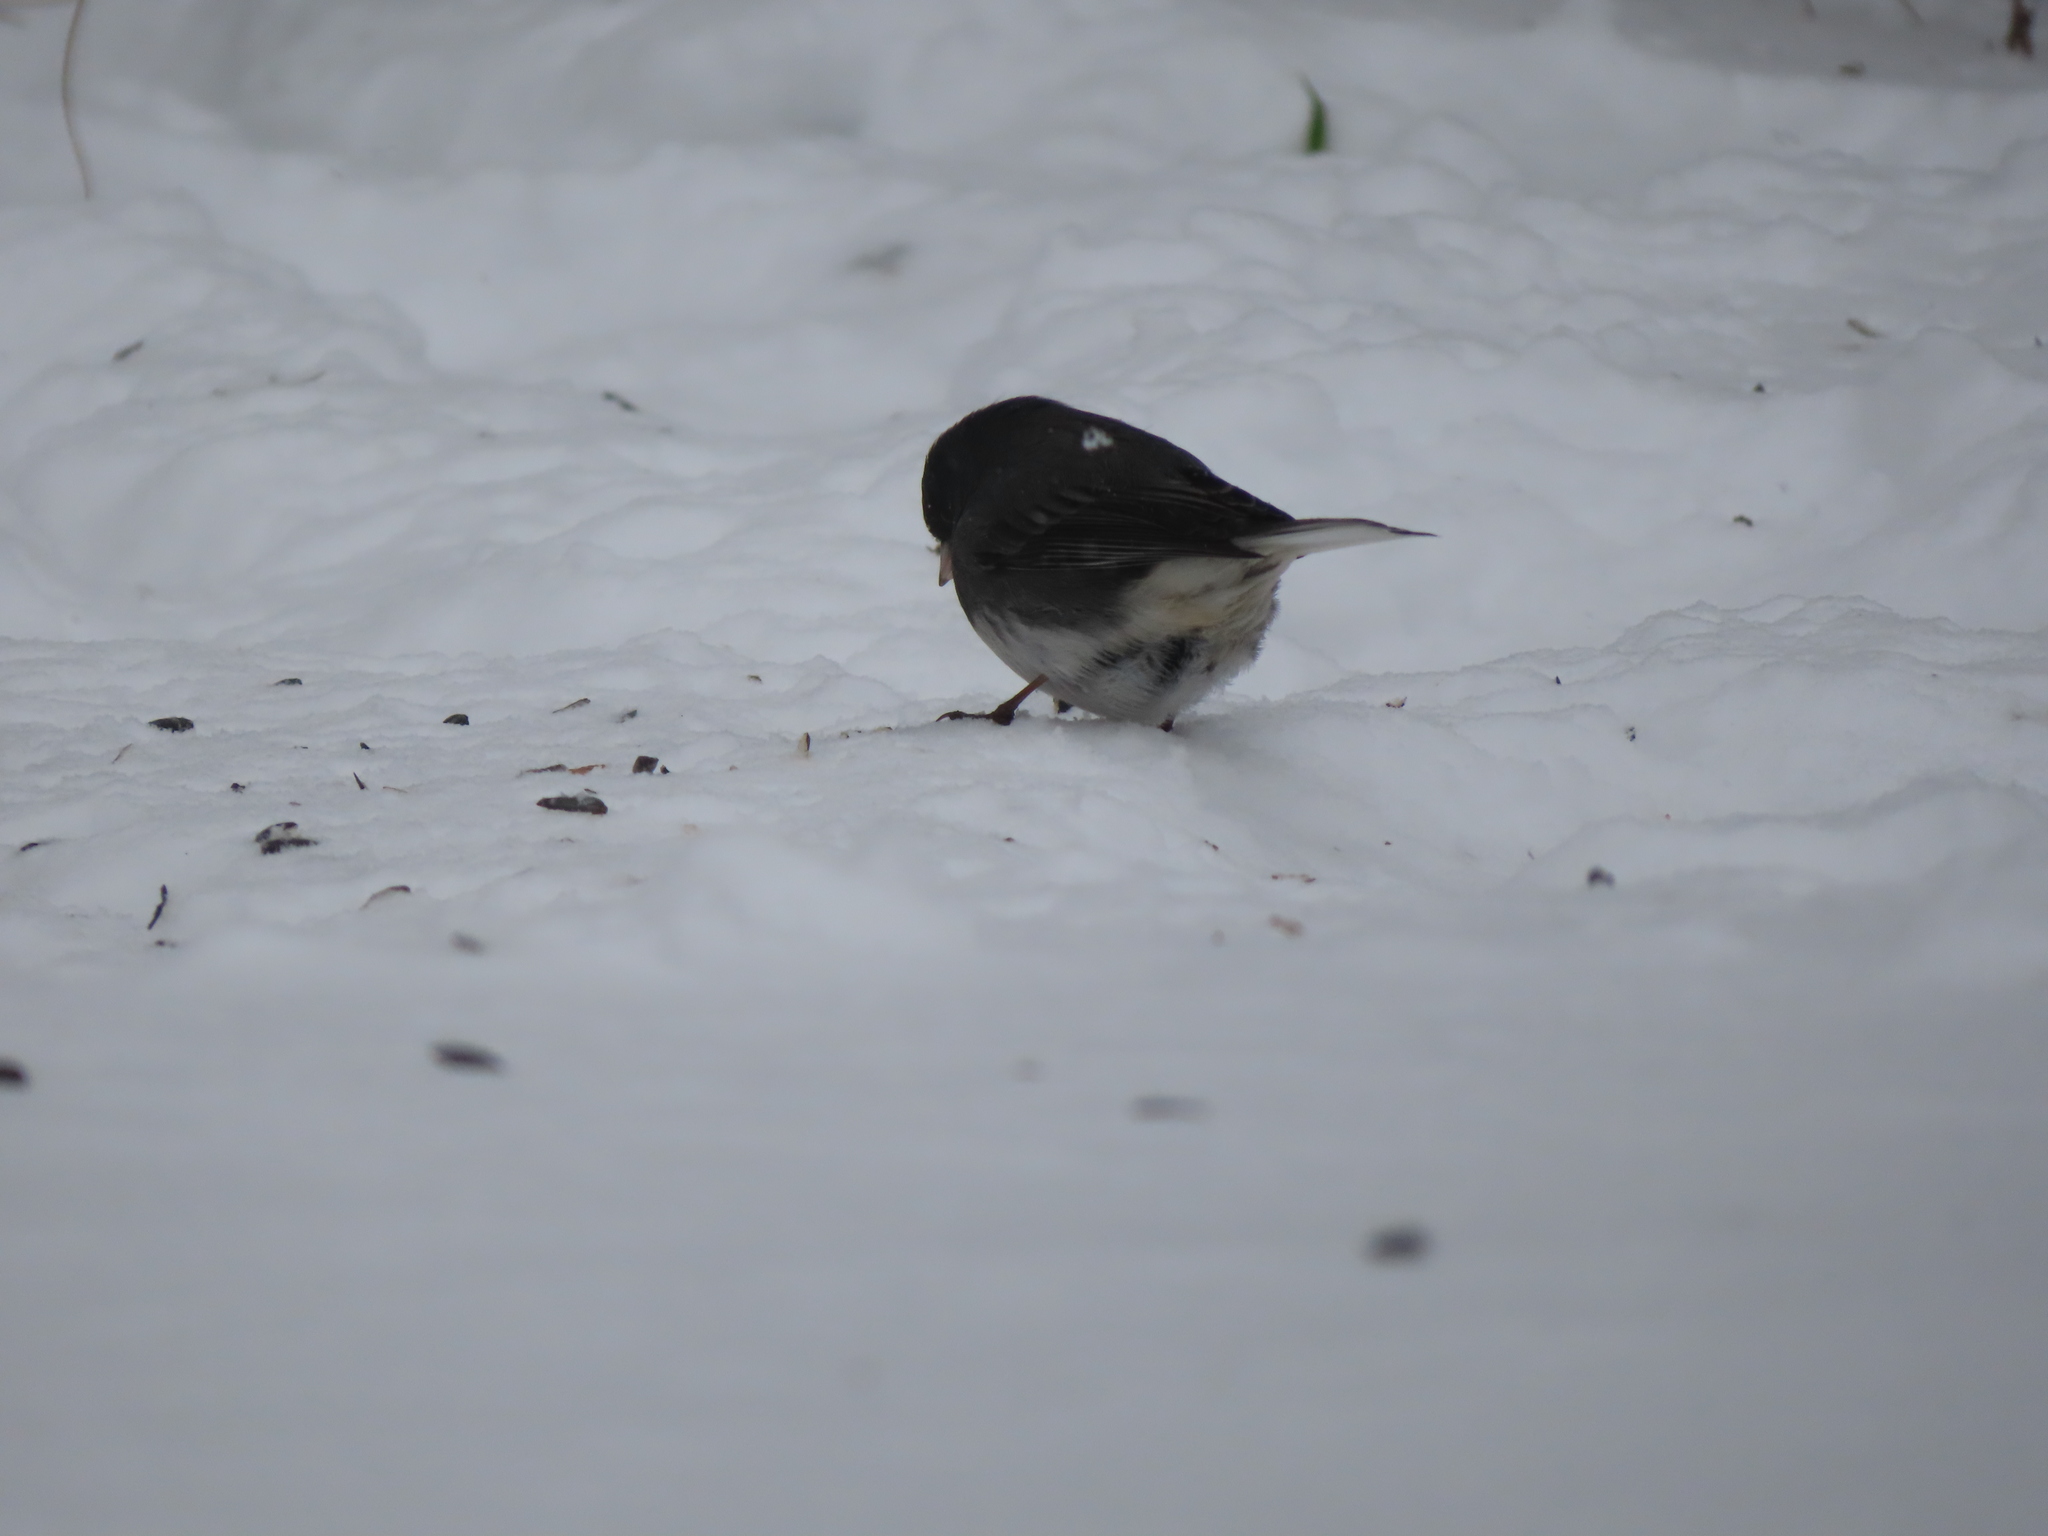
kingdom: Animalia
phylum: Chordata
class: Aves
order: Passeriformes
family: Passerellidae
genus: Junco
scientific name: Junco hyemalis
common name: Dark-eyed junco
